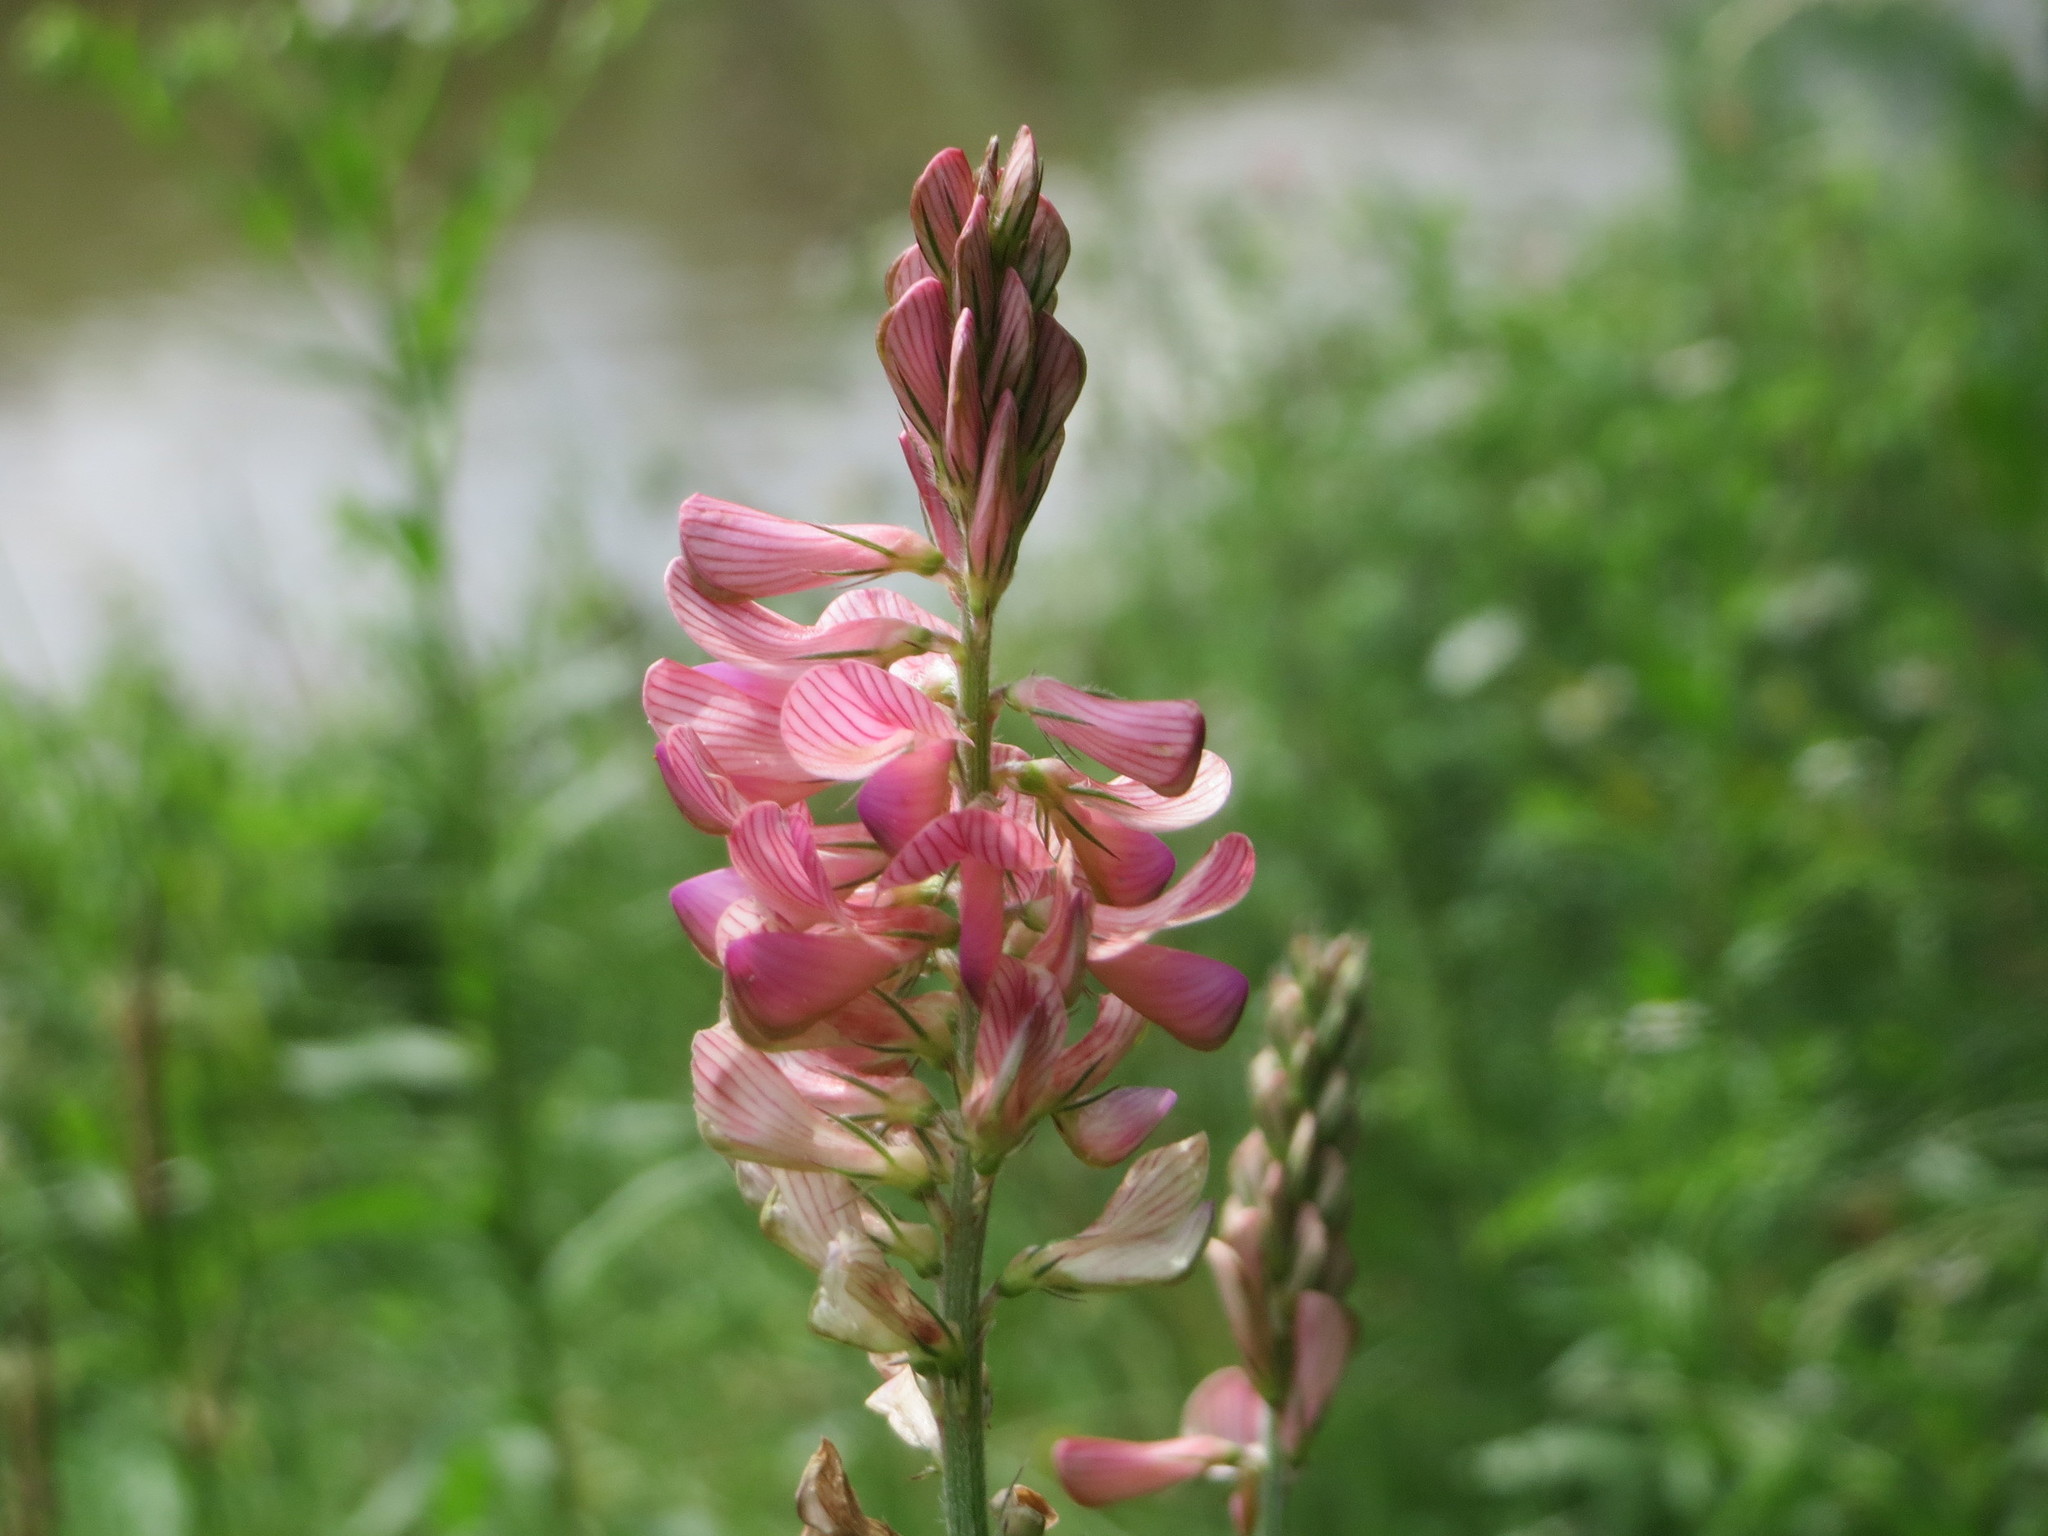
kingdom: Plantae
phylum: Tracheophyta
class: Magnoliopsida
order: Fabales
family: Fabaceae
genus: Onobrychis
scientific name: Onobrychis viciifolia
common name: Sainfoin
